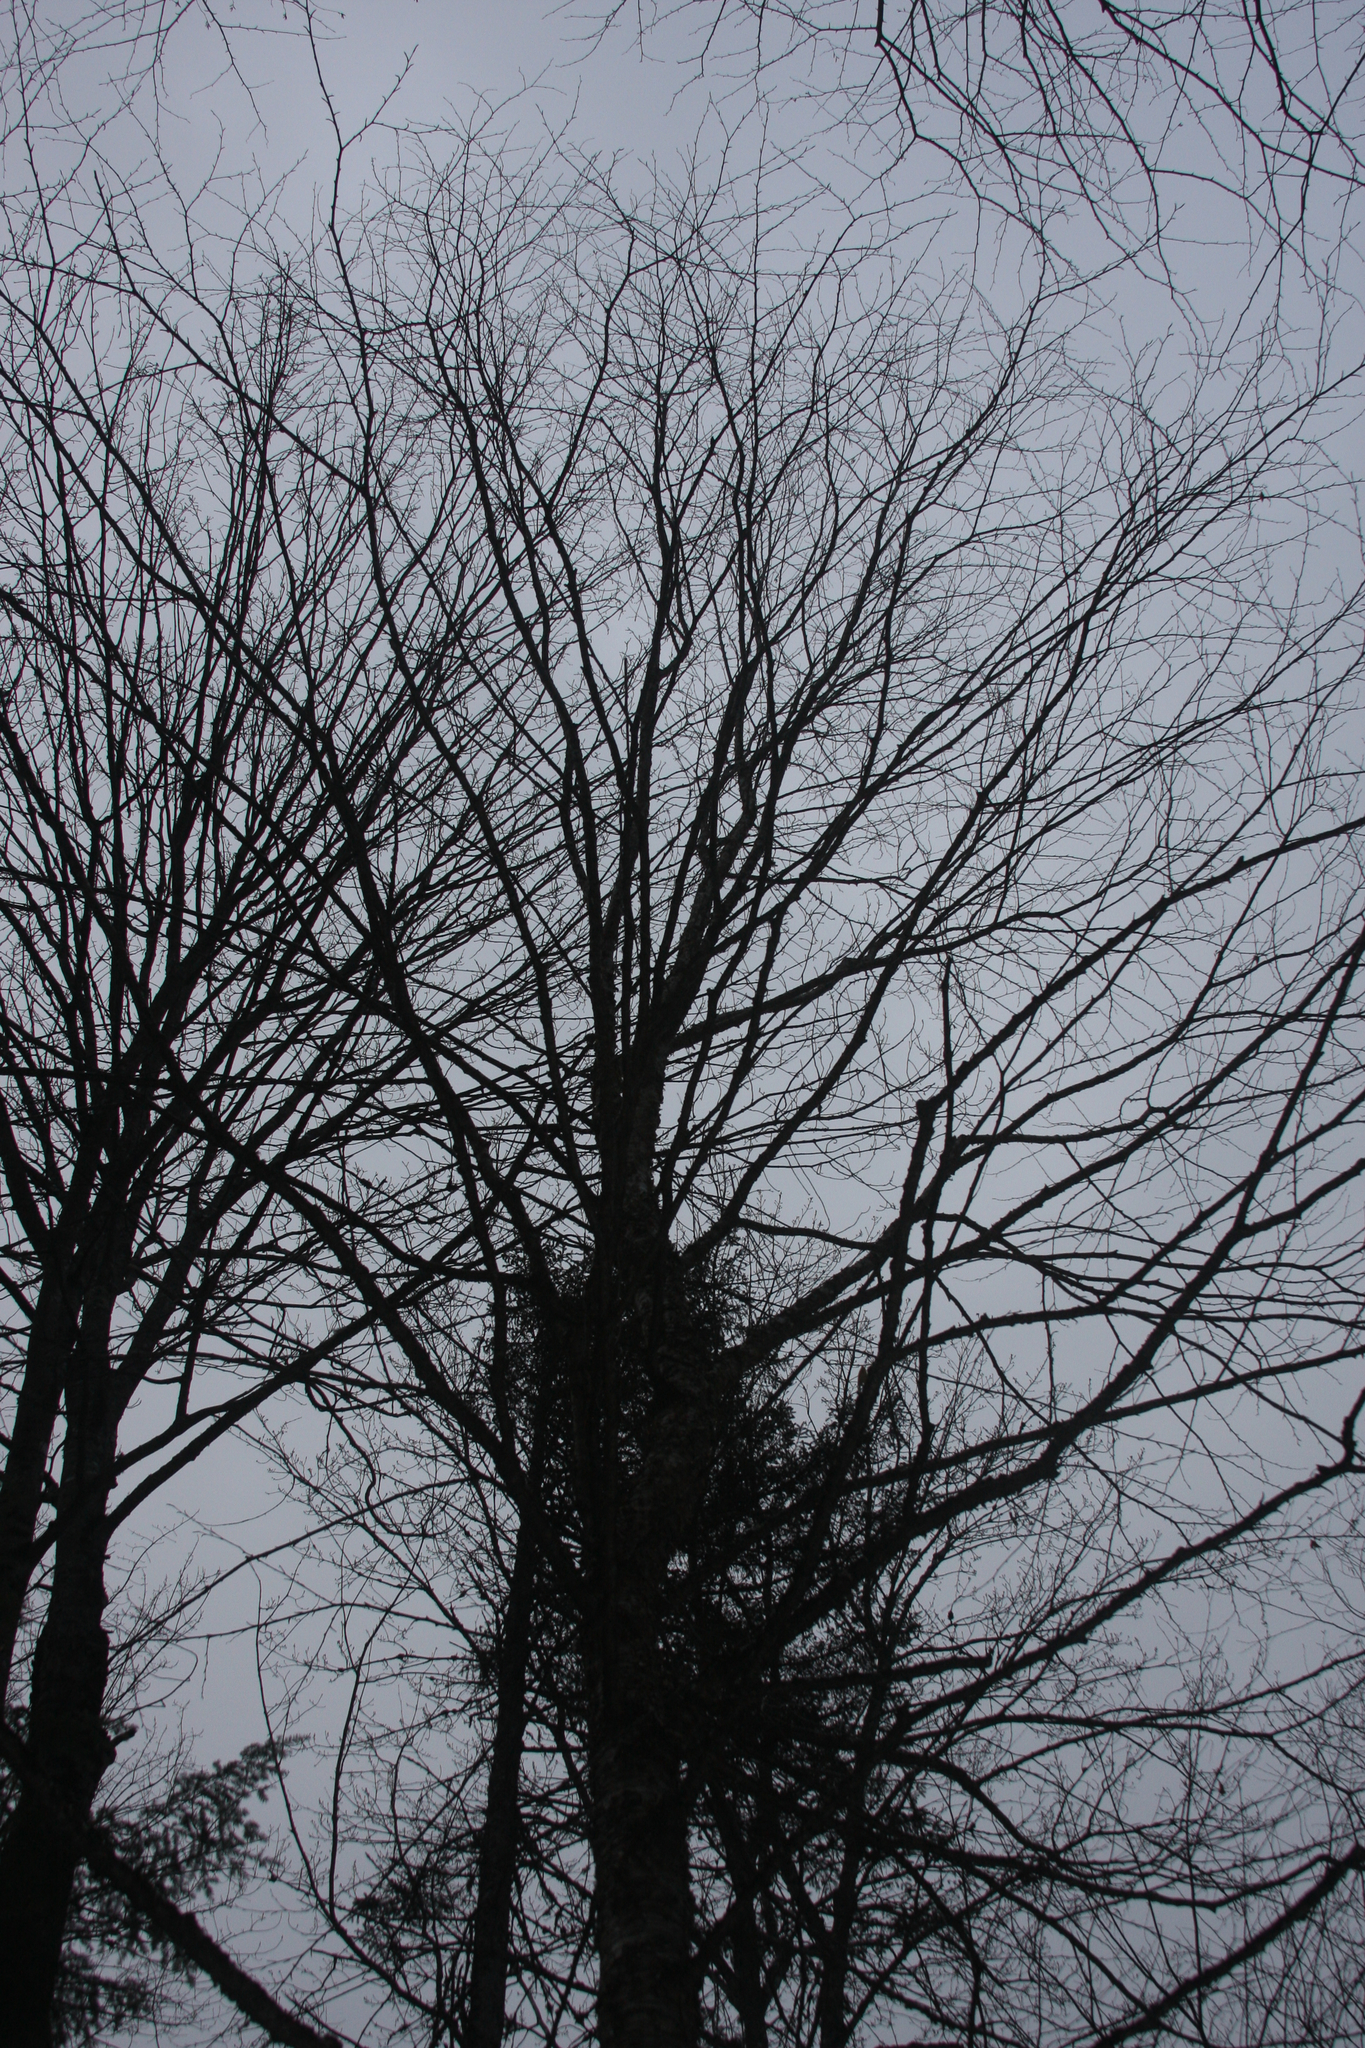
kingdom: Plantae
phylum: Tracheophyta
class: Magnoliopsida
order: Fagales
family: Betulaceae
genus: Betula
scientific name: Betula alleghaniensis
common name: Yellow birch
